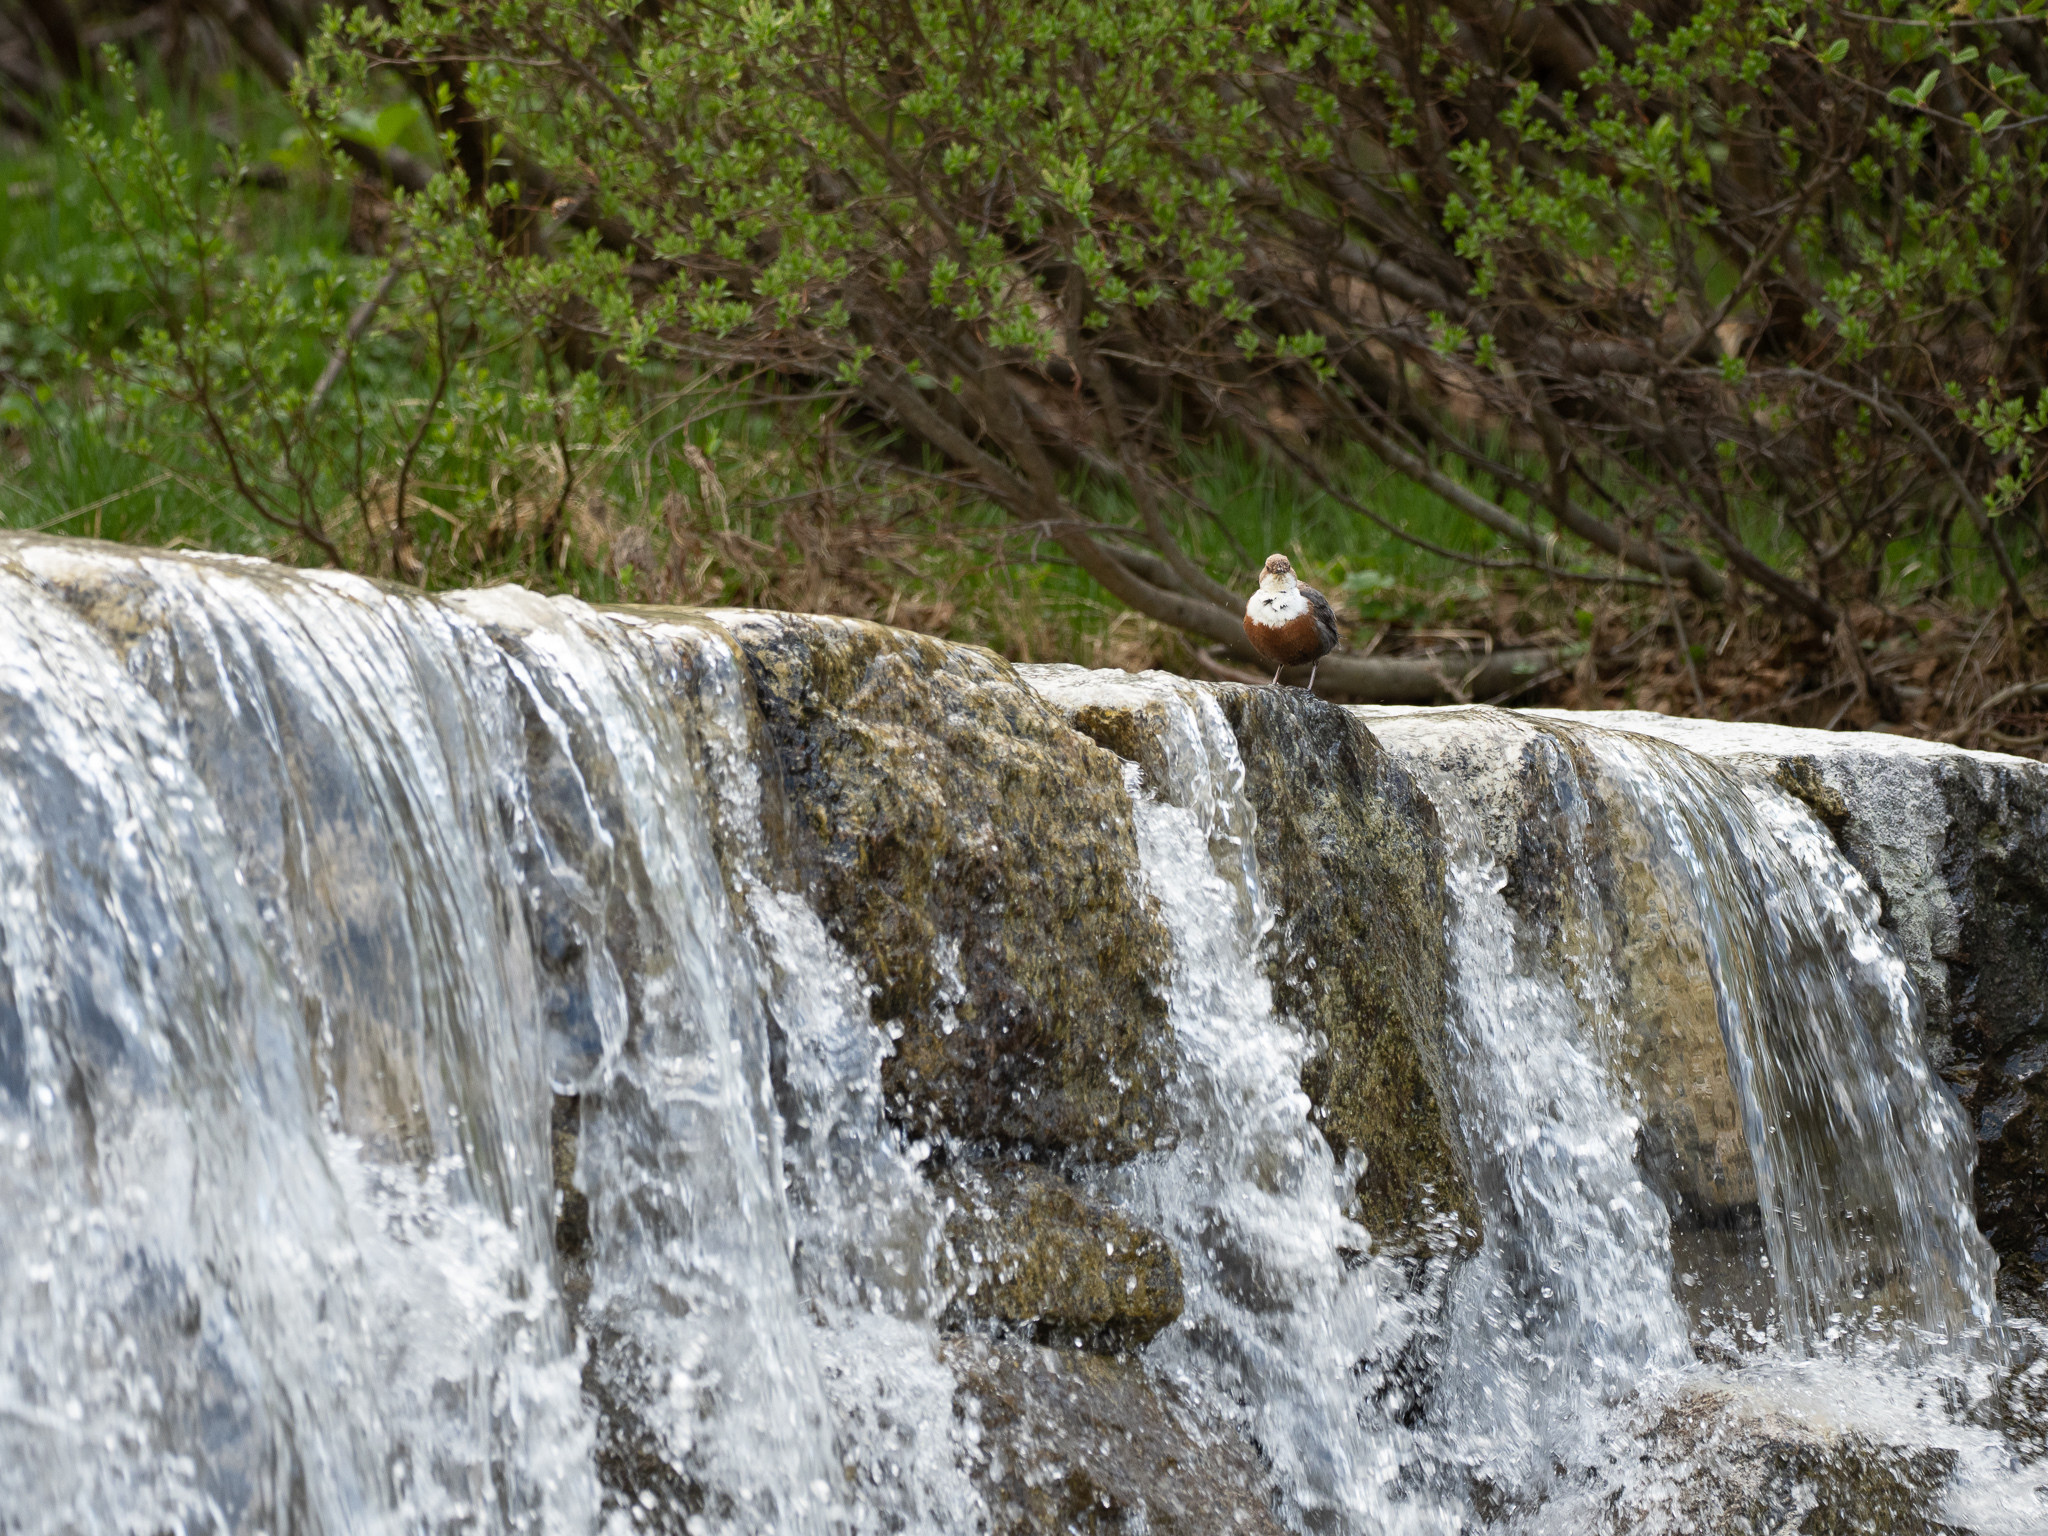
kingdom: Animalia
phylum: Chordata
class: Aves
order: Passeriformes
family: Cinclidae
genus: Cinclus
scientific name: Cinclus cinclus
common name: White-throated dipper
